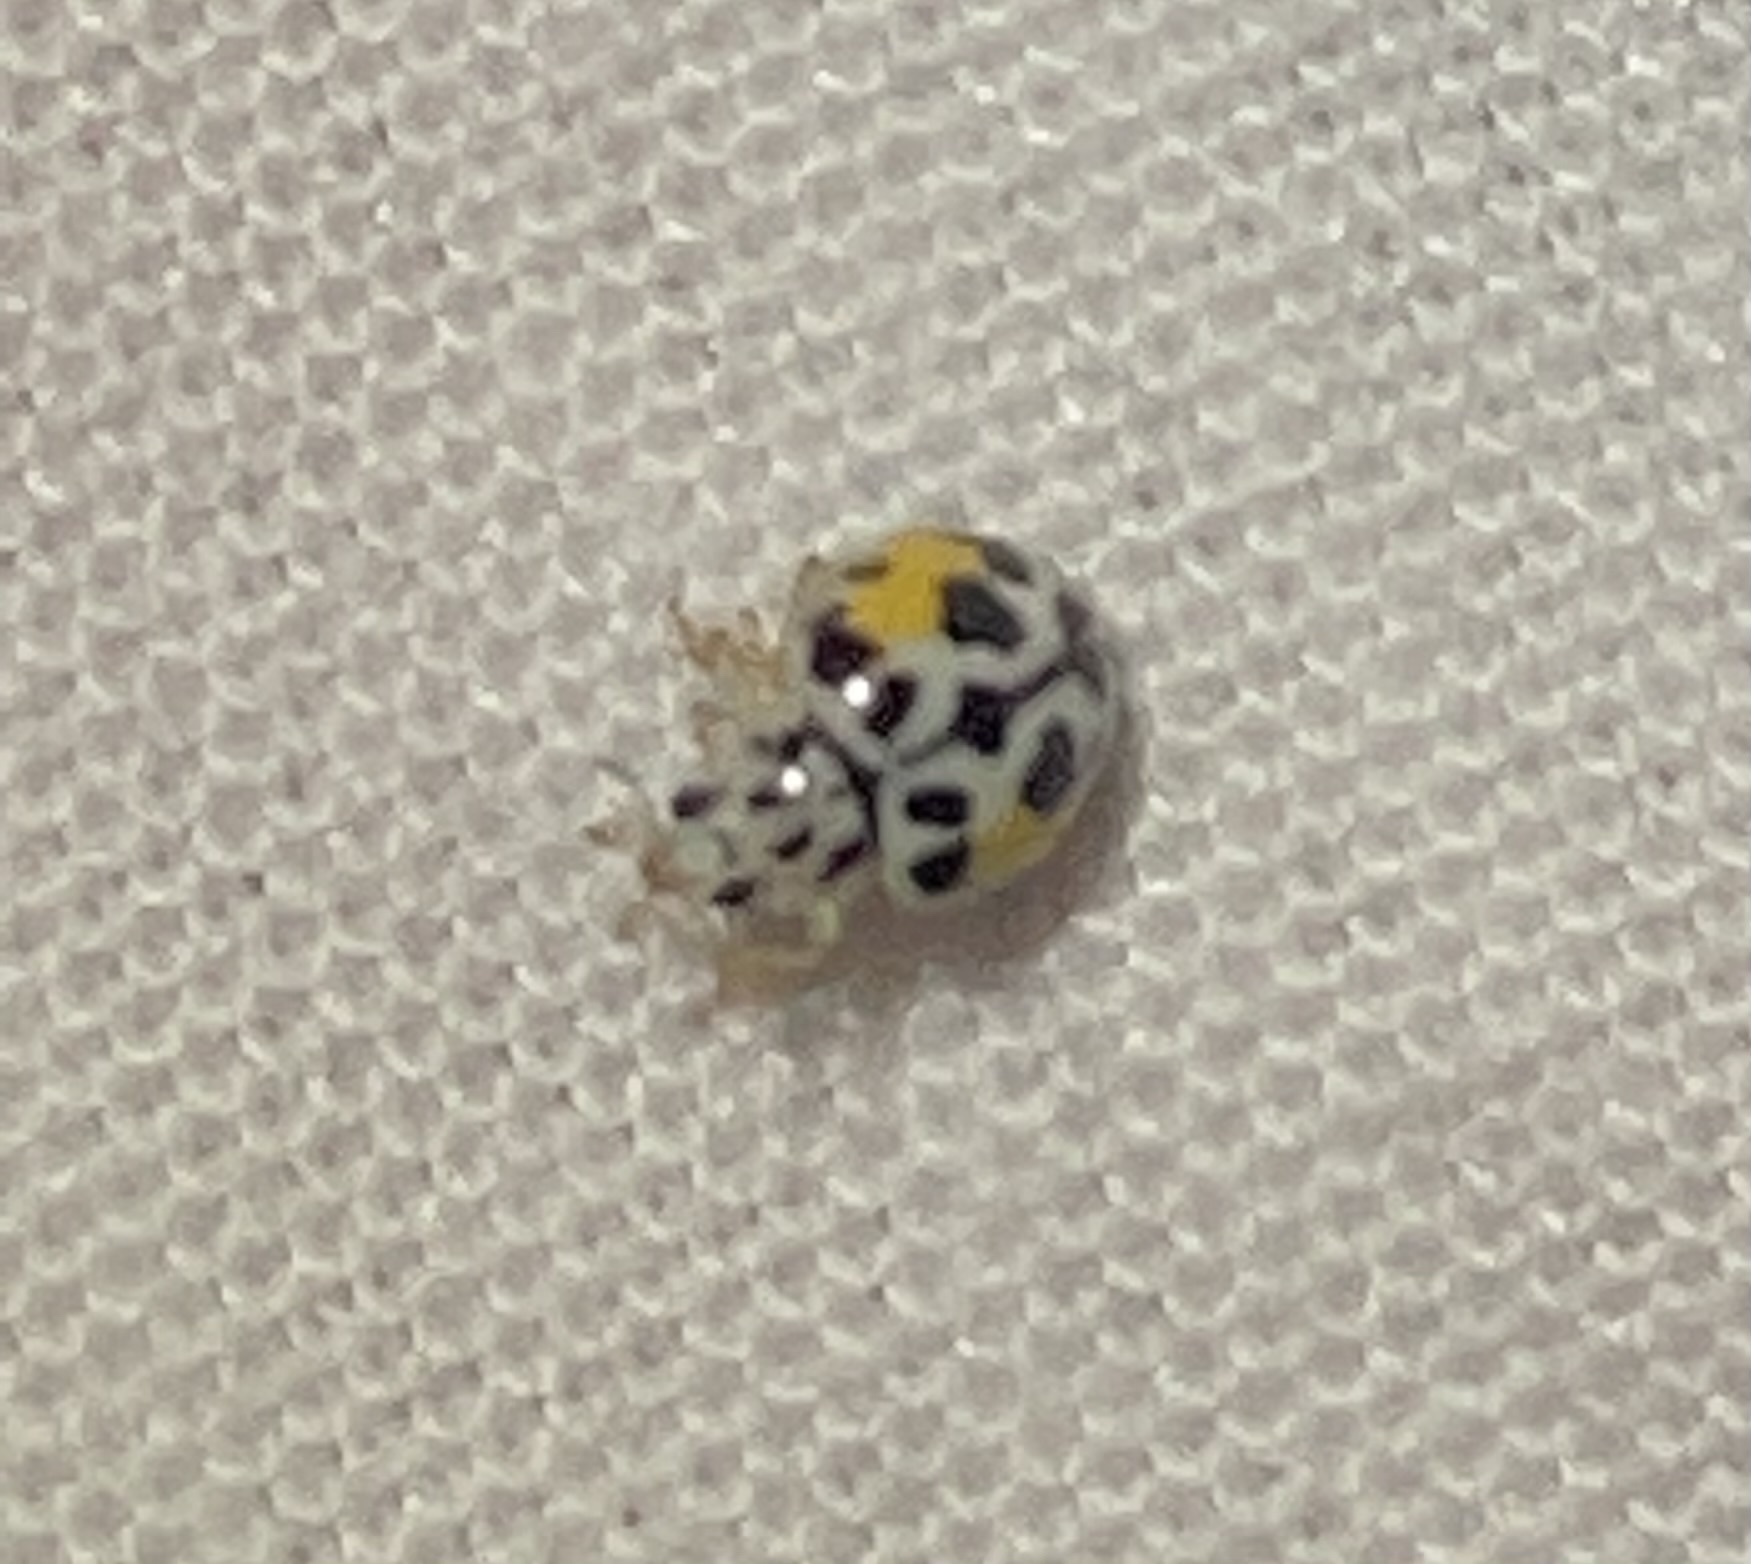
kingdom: Animalia
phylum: Arthropoda
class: Insecta
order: Coleoptera
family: Coccinellidae
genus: Psyllobora
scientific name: Psyllobora nana
